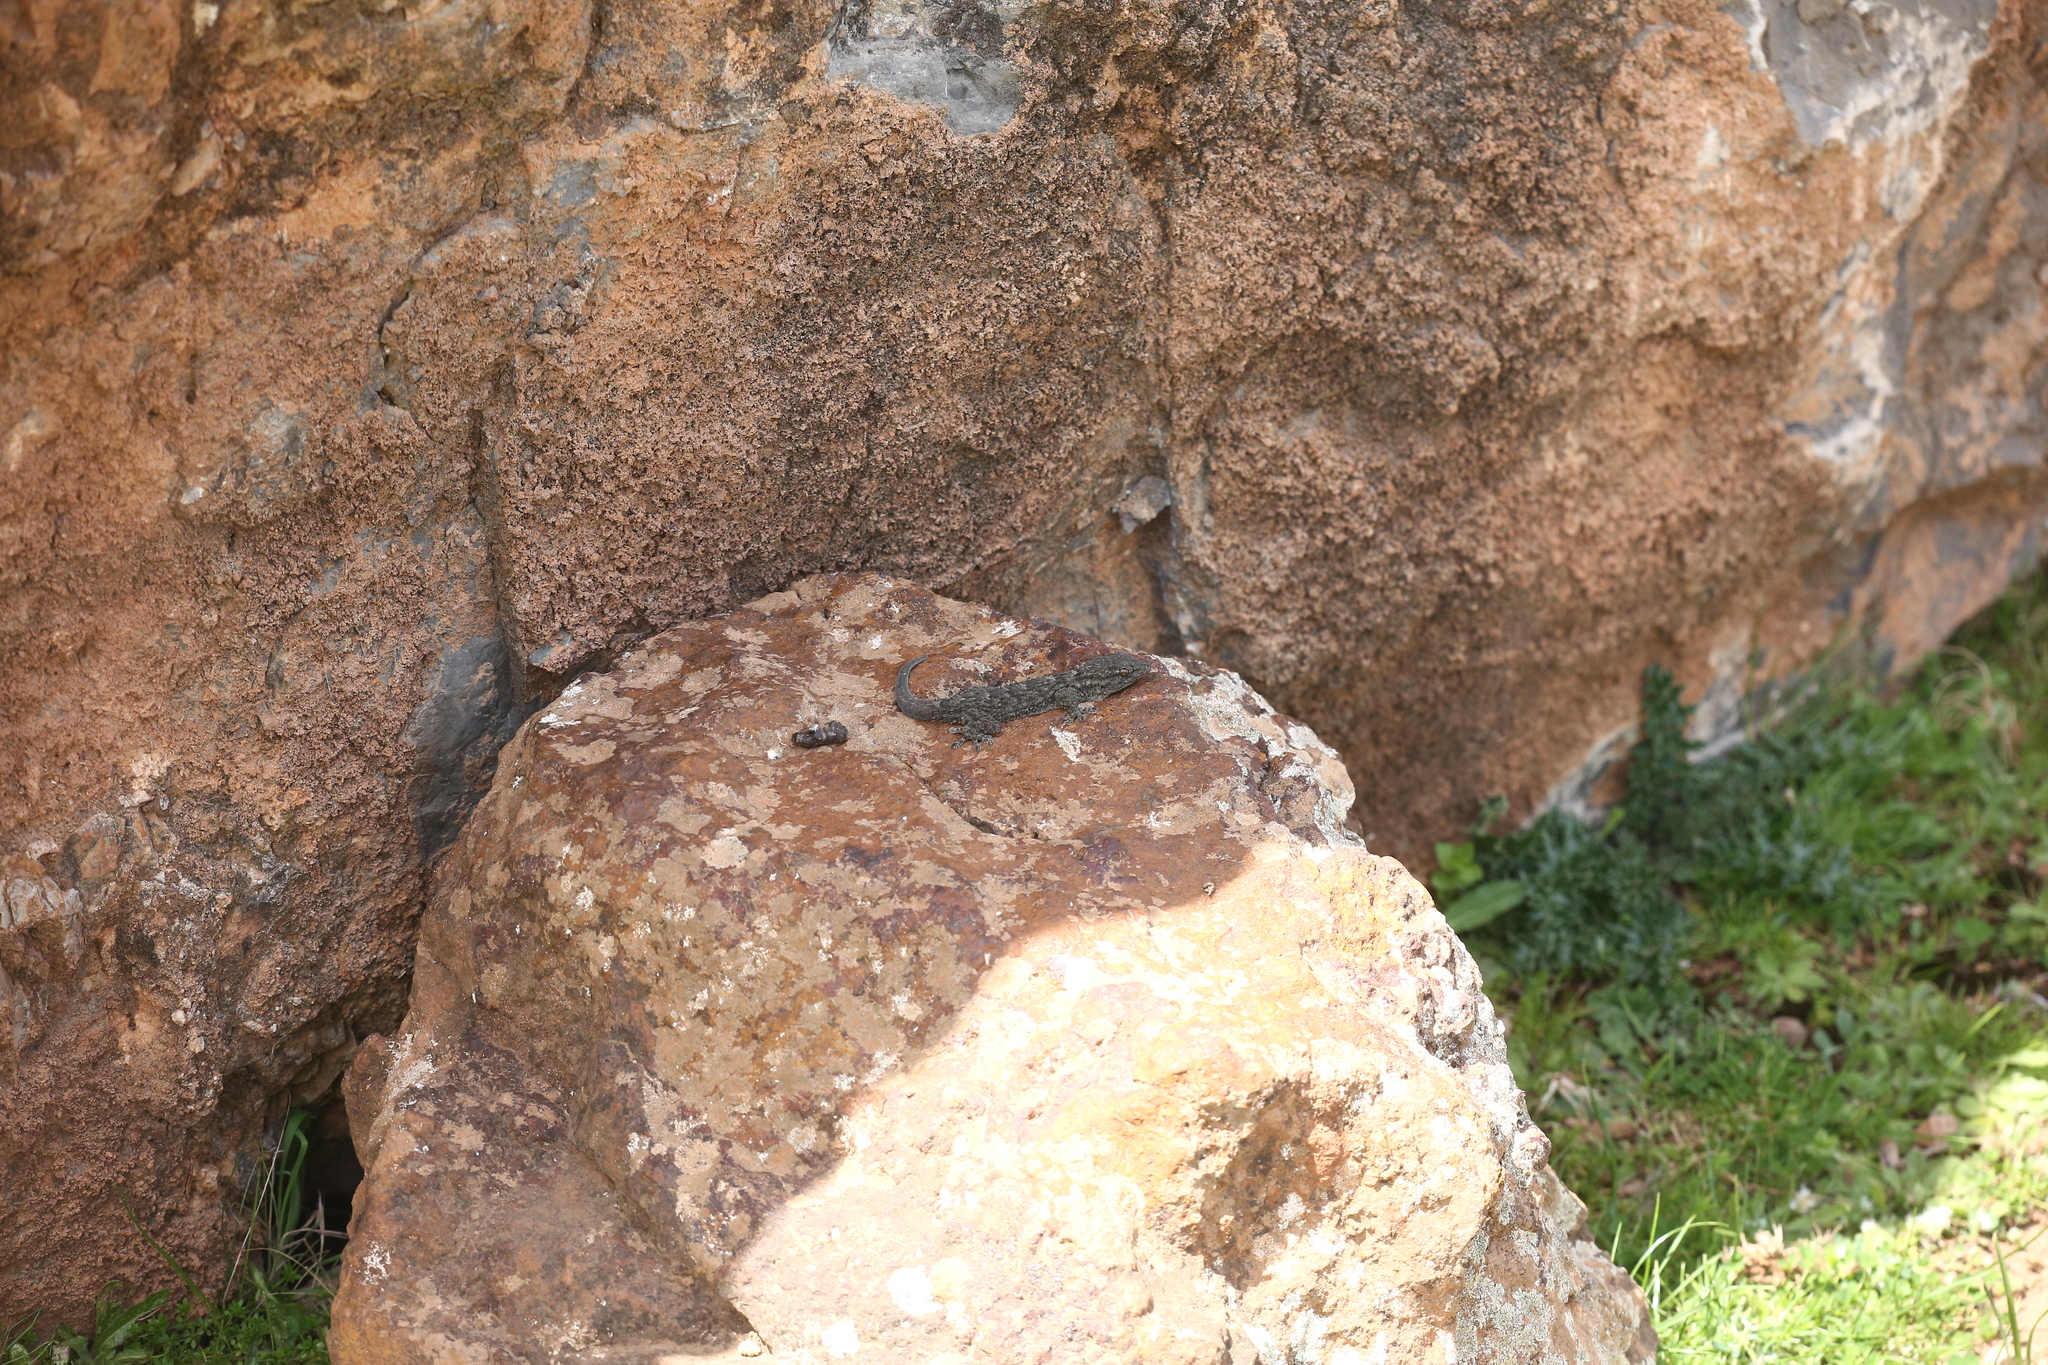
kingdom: Animalia
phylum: Chordata
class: Squamata
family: Phyllodactylidae
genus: Tarentola
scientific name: Tarentola mauritanica
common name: Moorish gecko
